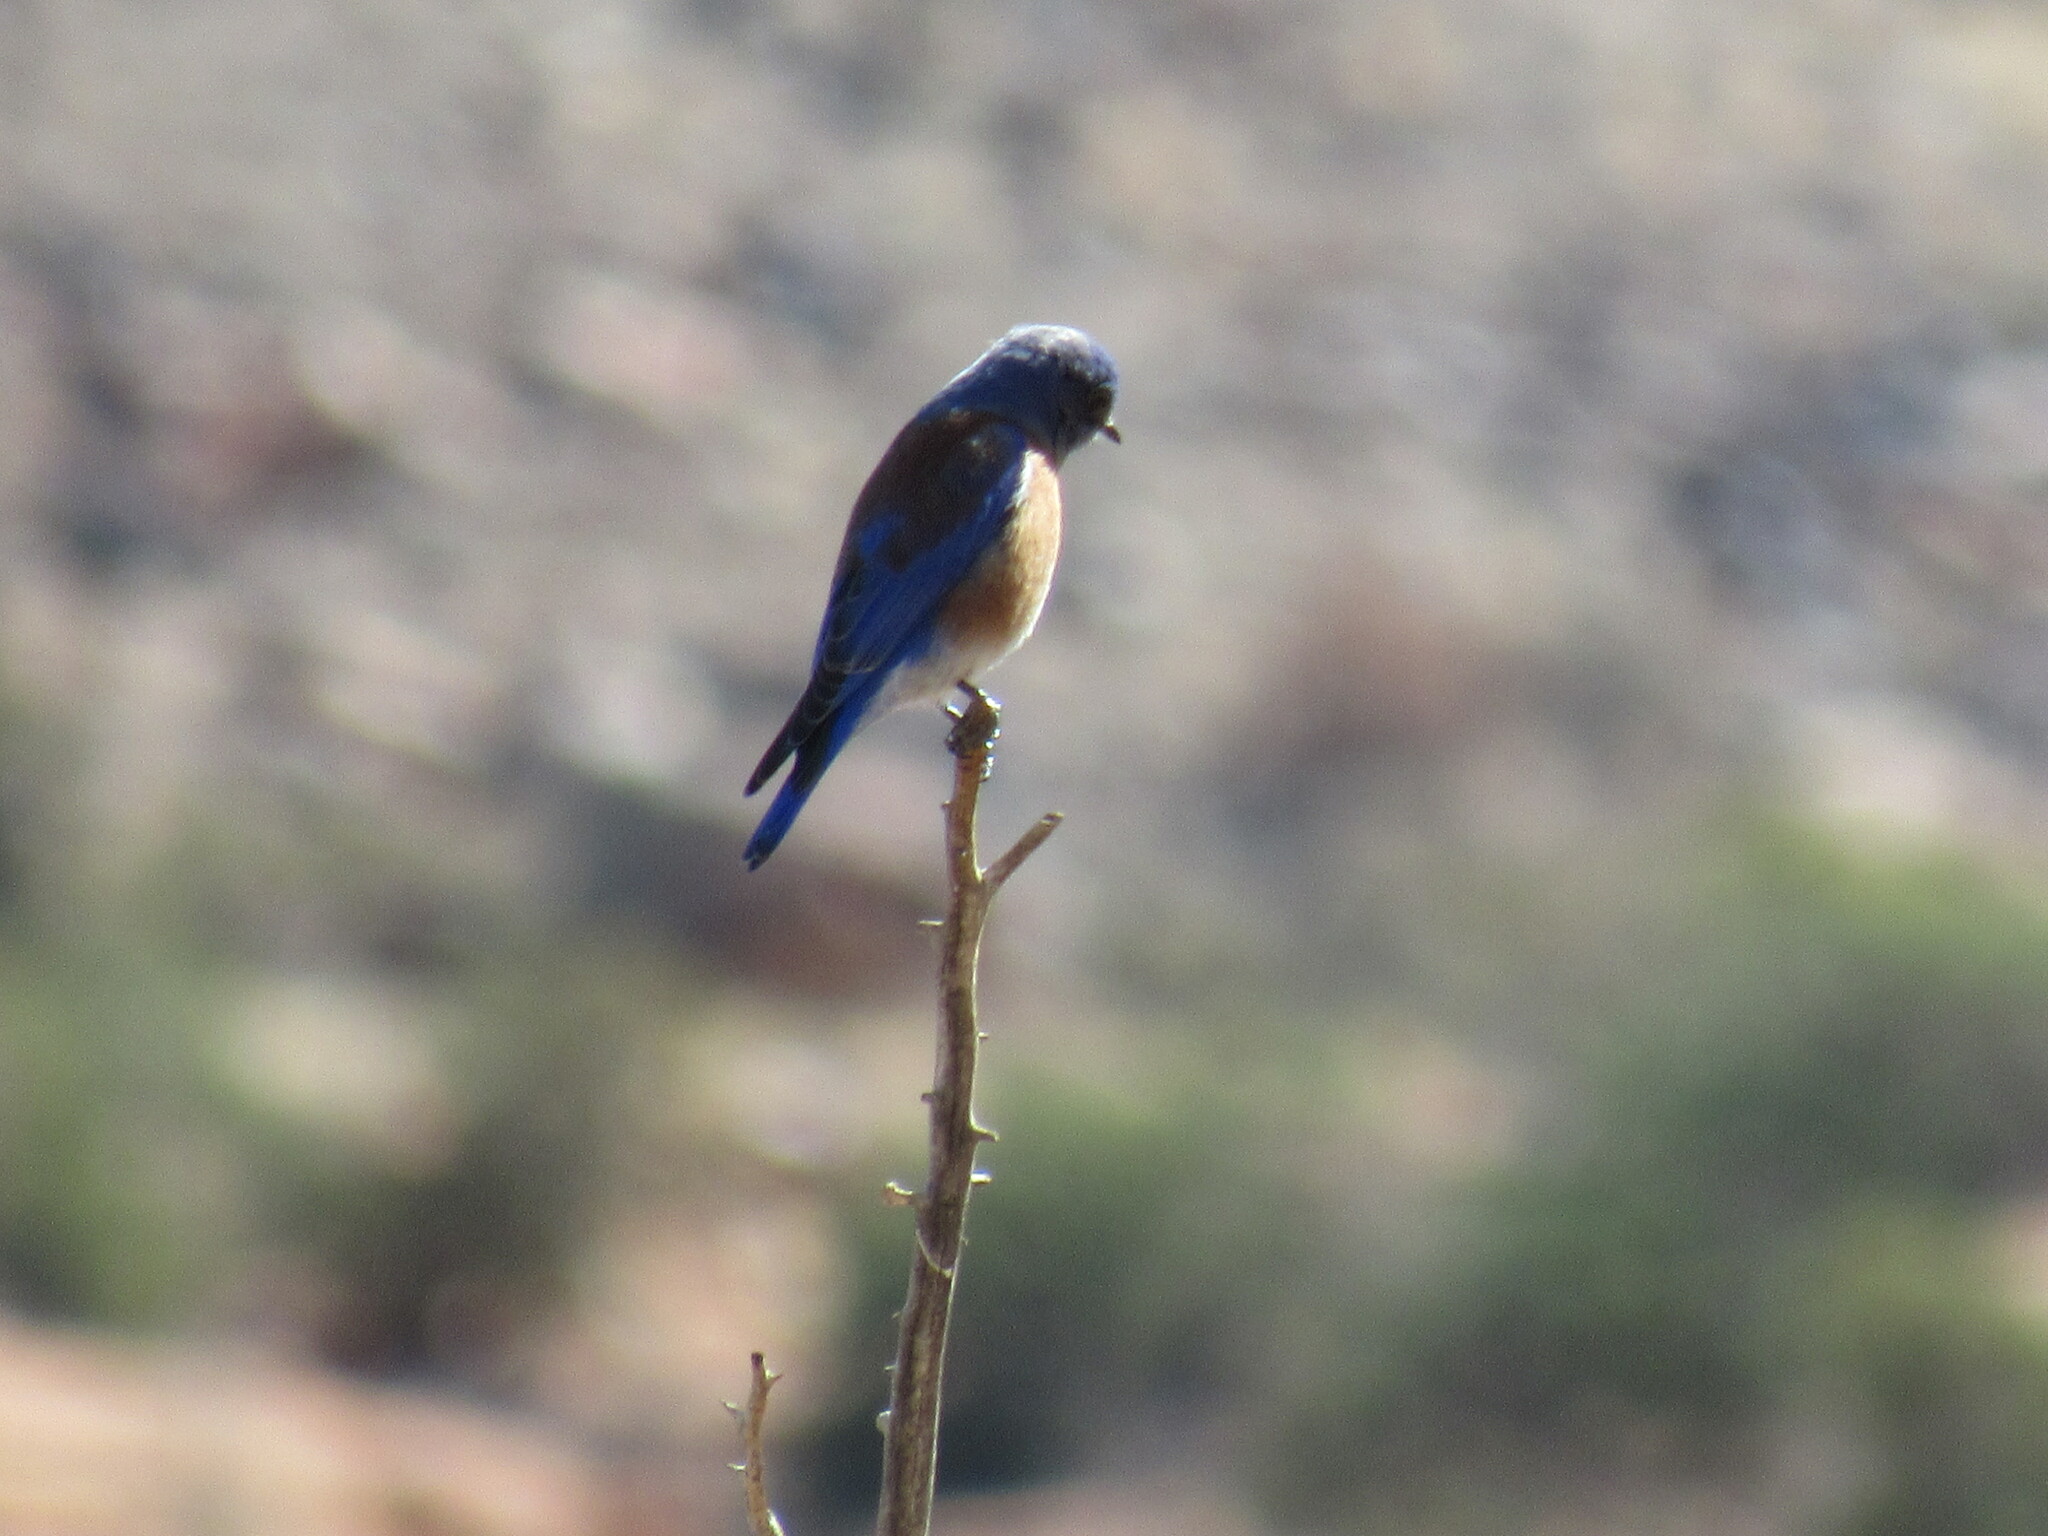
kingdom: Animalia
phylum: Chordata
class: Aves
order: Passeriformes
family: Turdidae
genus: Sialia
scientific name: Sialia mexicana
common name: Western bluebird
